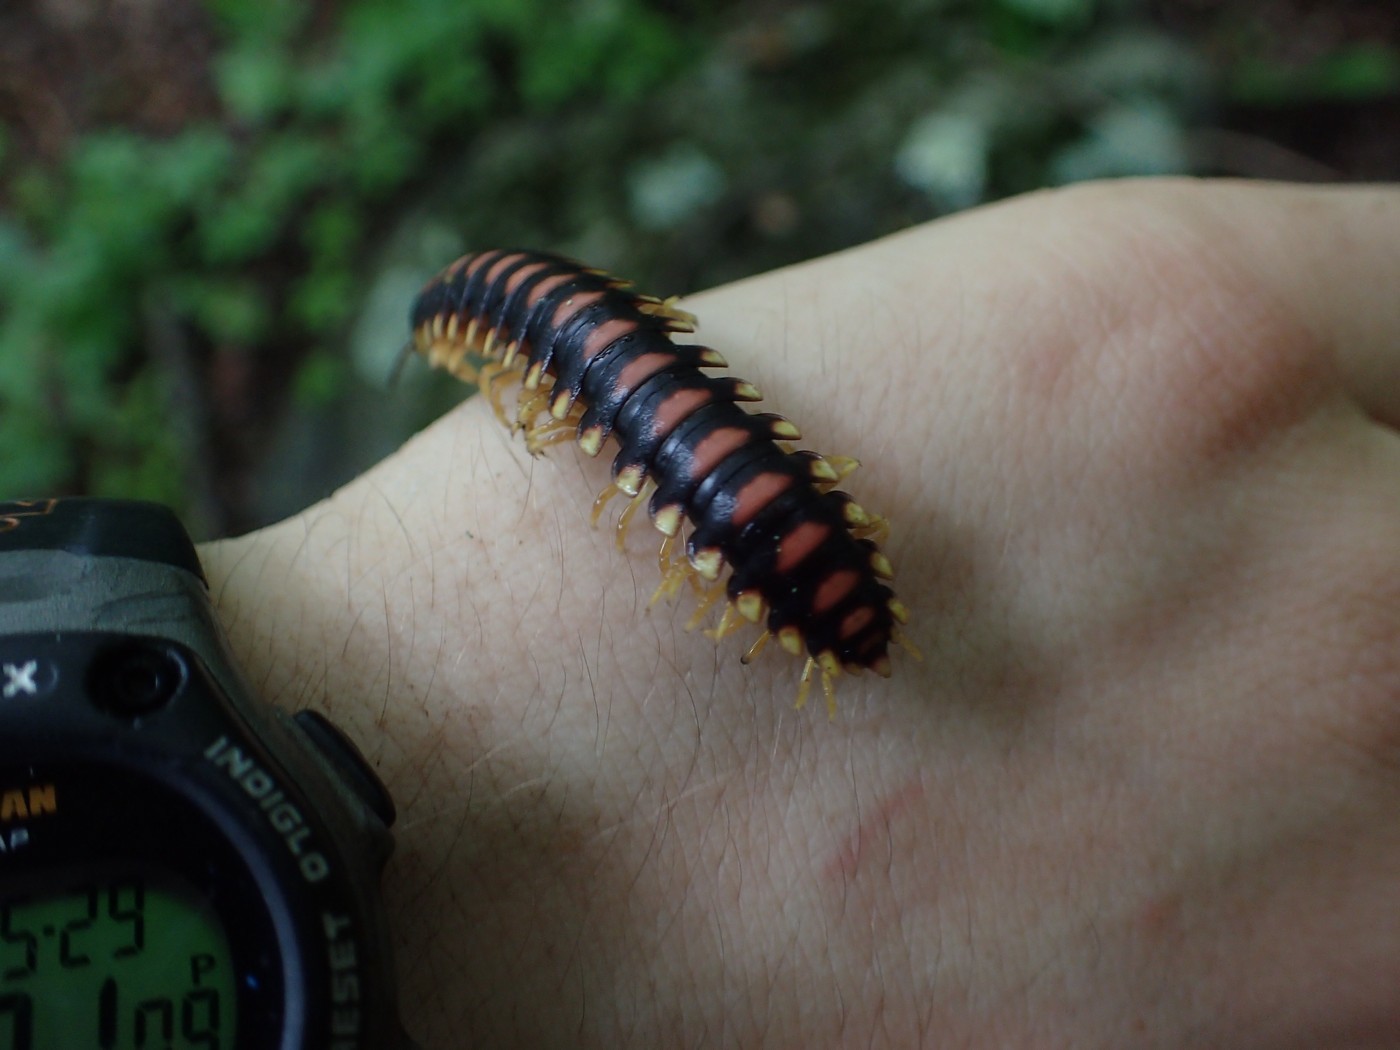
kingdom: Animalia
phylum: Arthropoda
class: Diplopoda
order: Polydesmida
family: Xystodesmidae
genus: Rudiloria
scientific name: Rudiloria kleinpeteri
